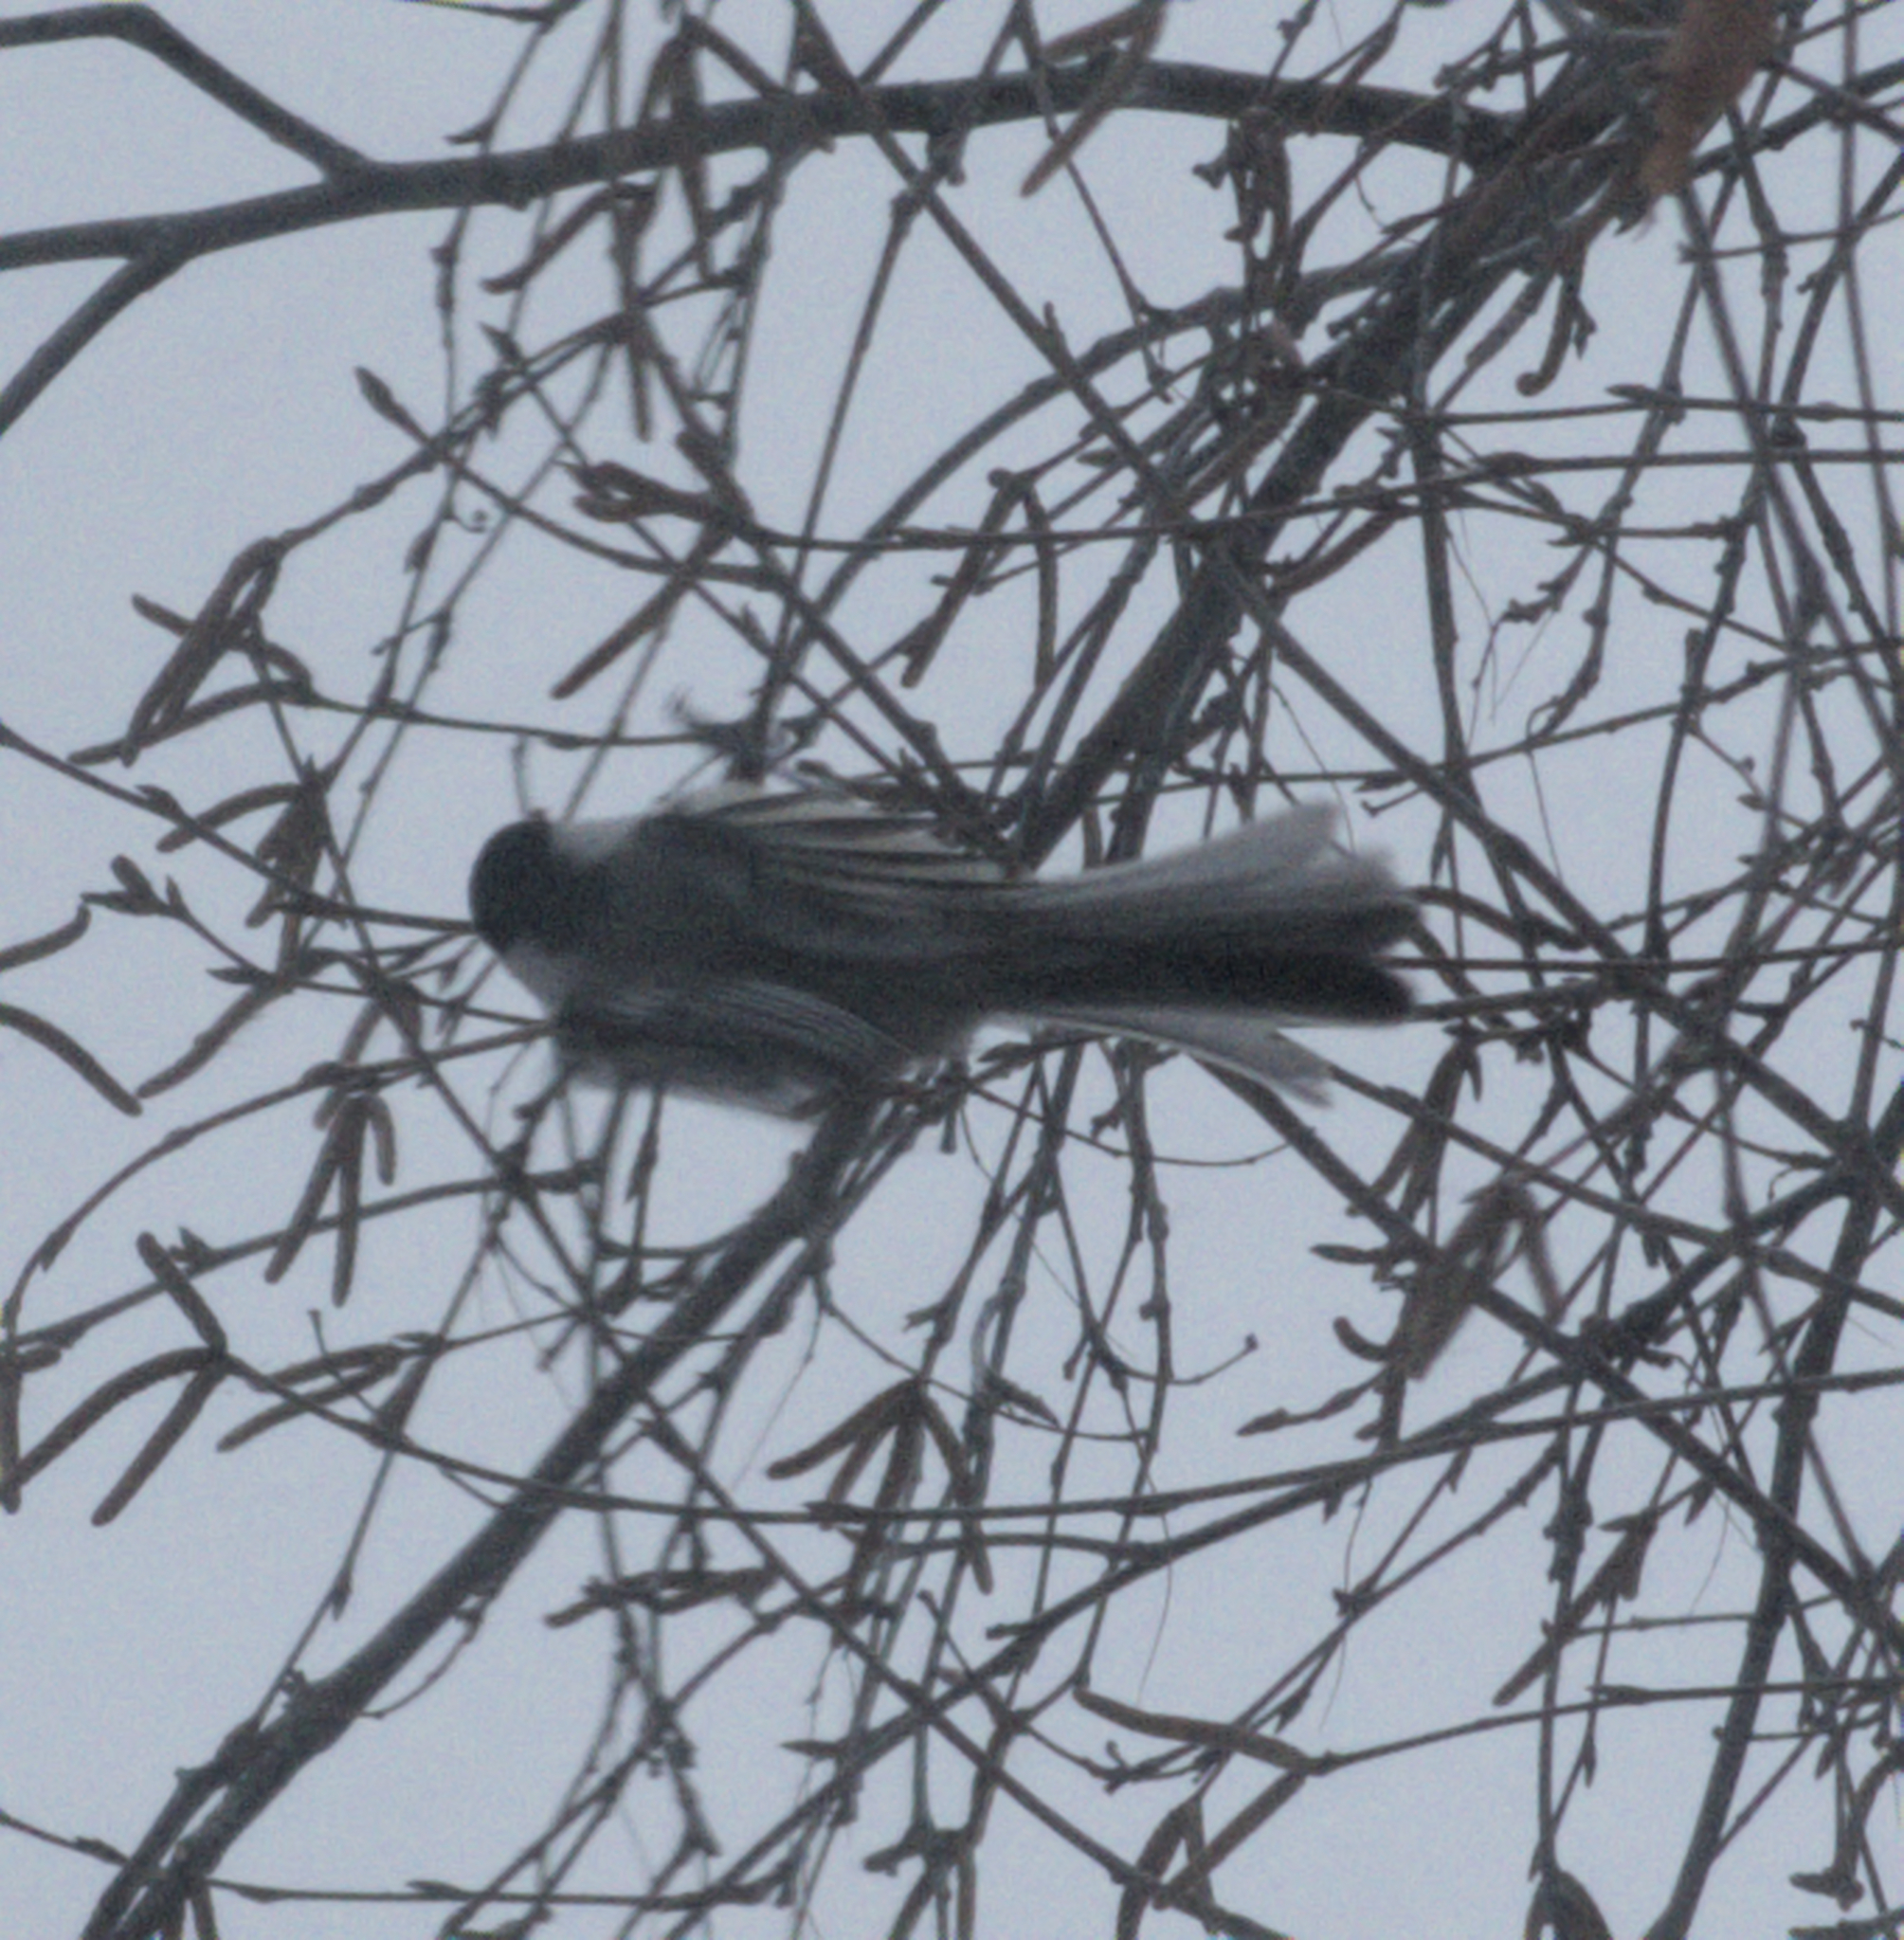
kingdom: Animalia
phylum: Chordata
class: Aves
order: Passeriformes
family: Paridae
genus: Poecile
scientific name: Poecile atricapillus
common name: Black-capped chickadee
